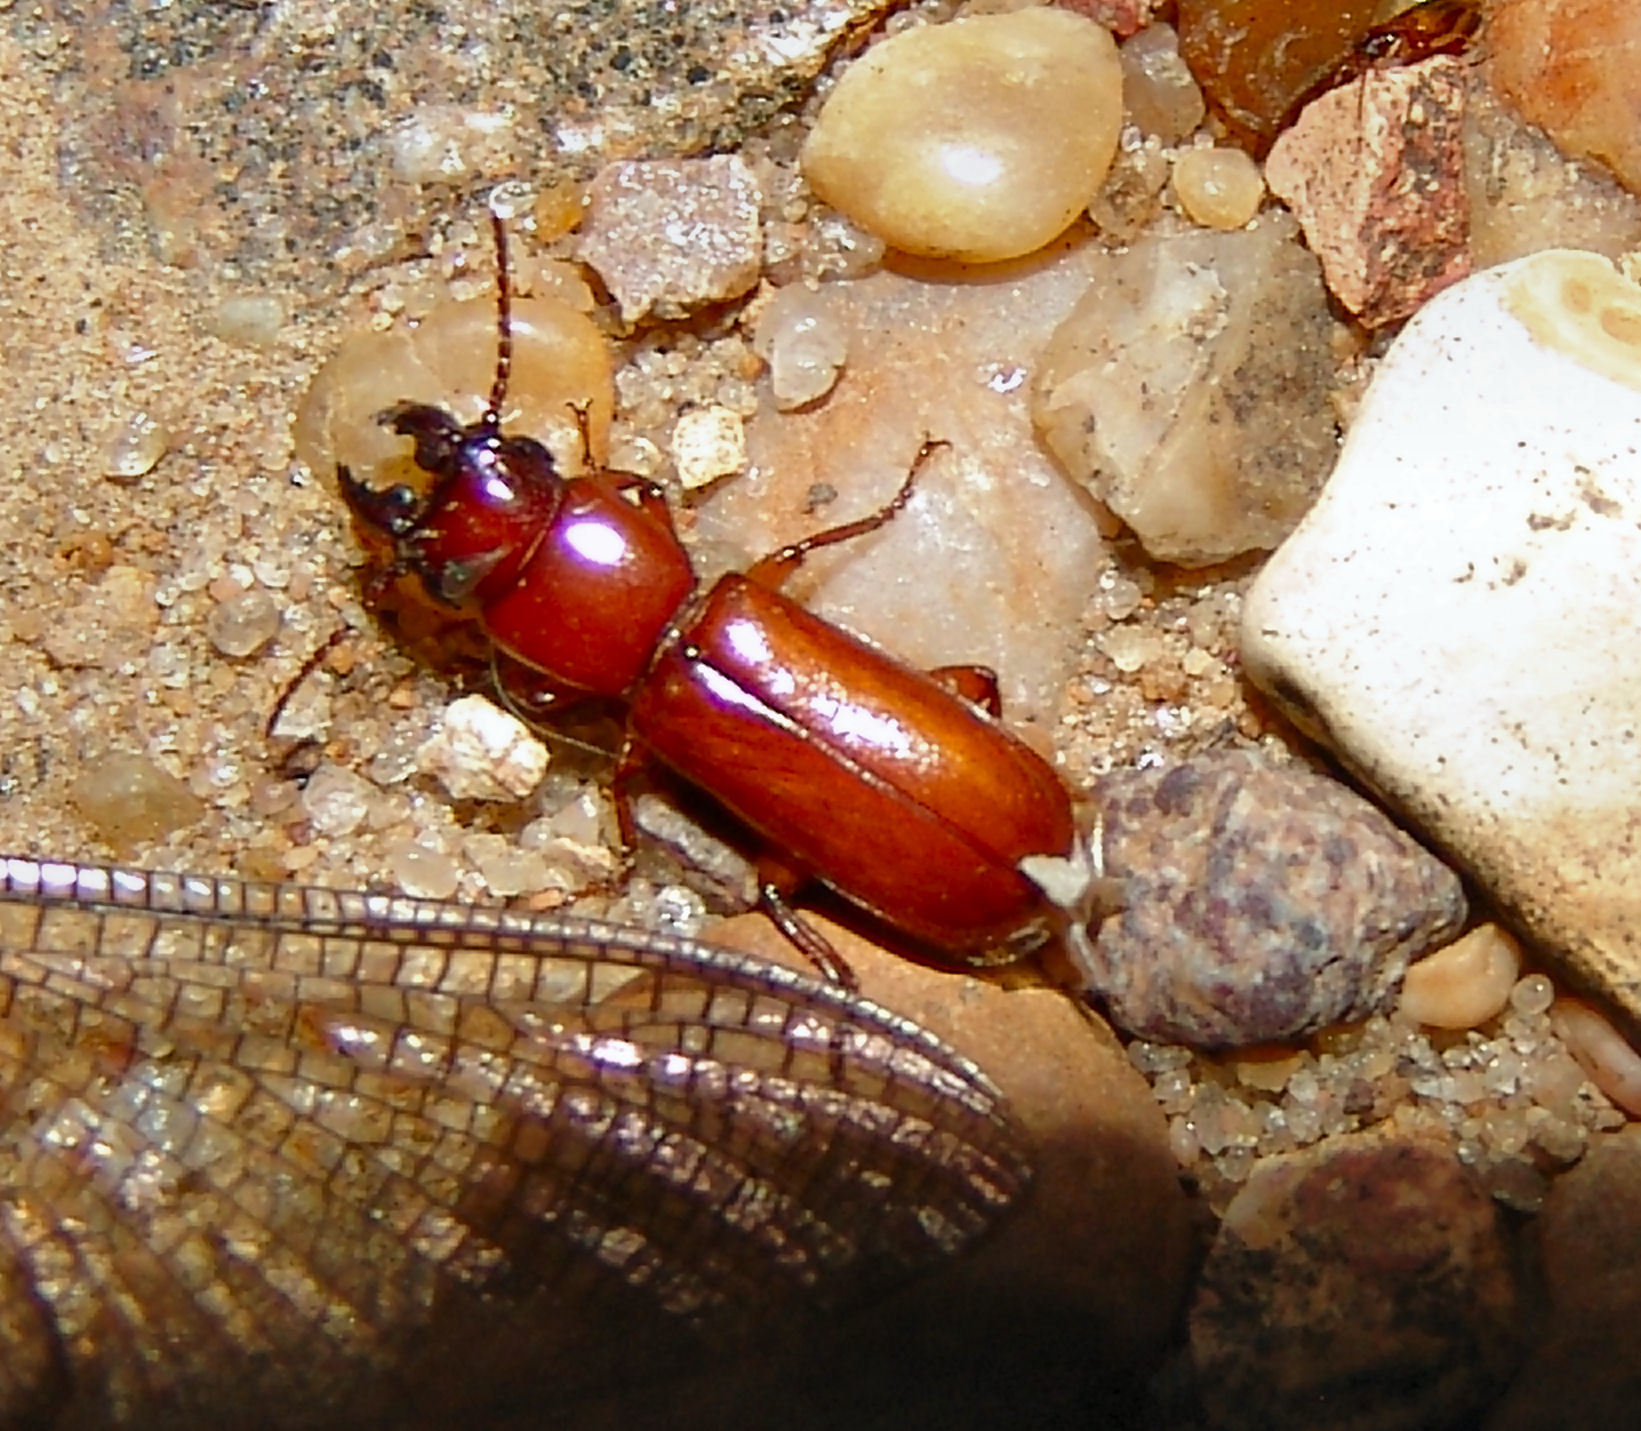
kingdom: Animalia
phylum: Arthropoda
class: Insecta
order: Coleoptera
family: Cerambycidae
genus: Parandra
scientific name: Parandra polita
